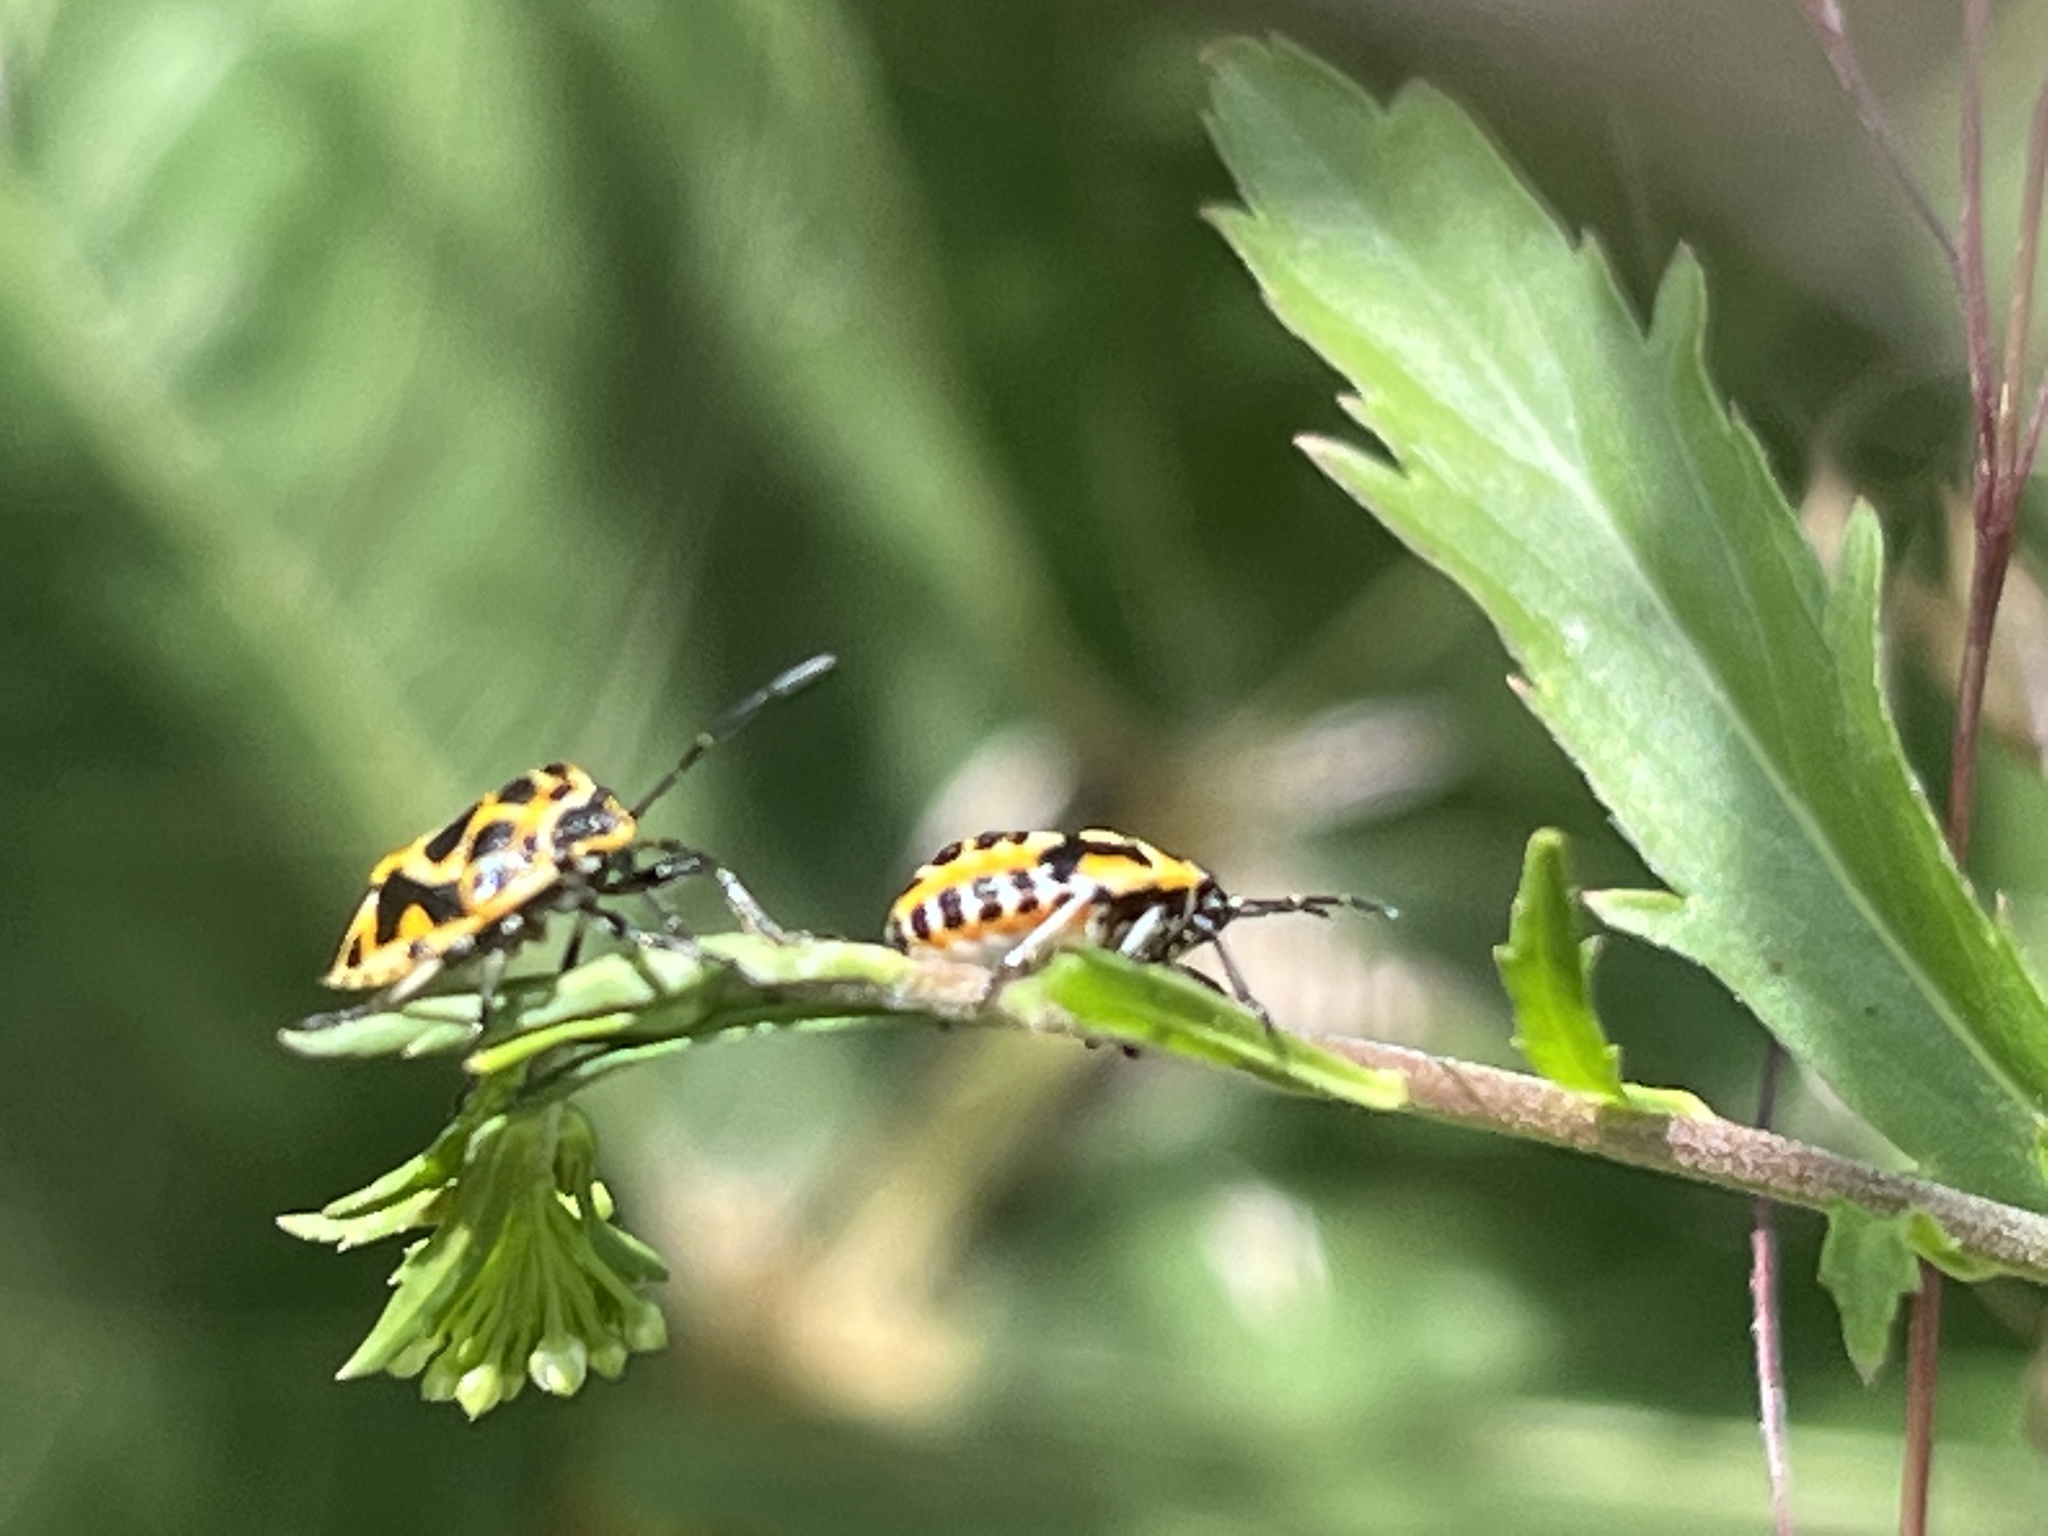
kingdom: Animalia
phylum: Arthropoda
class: Insecta
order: Hemiptera
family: Pentatomidae
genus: Eurydema
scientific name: Eurydema dominulus
